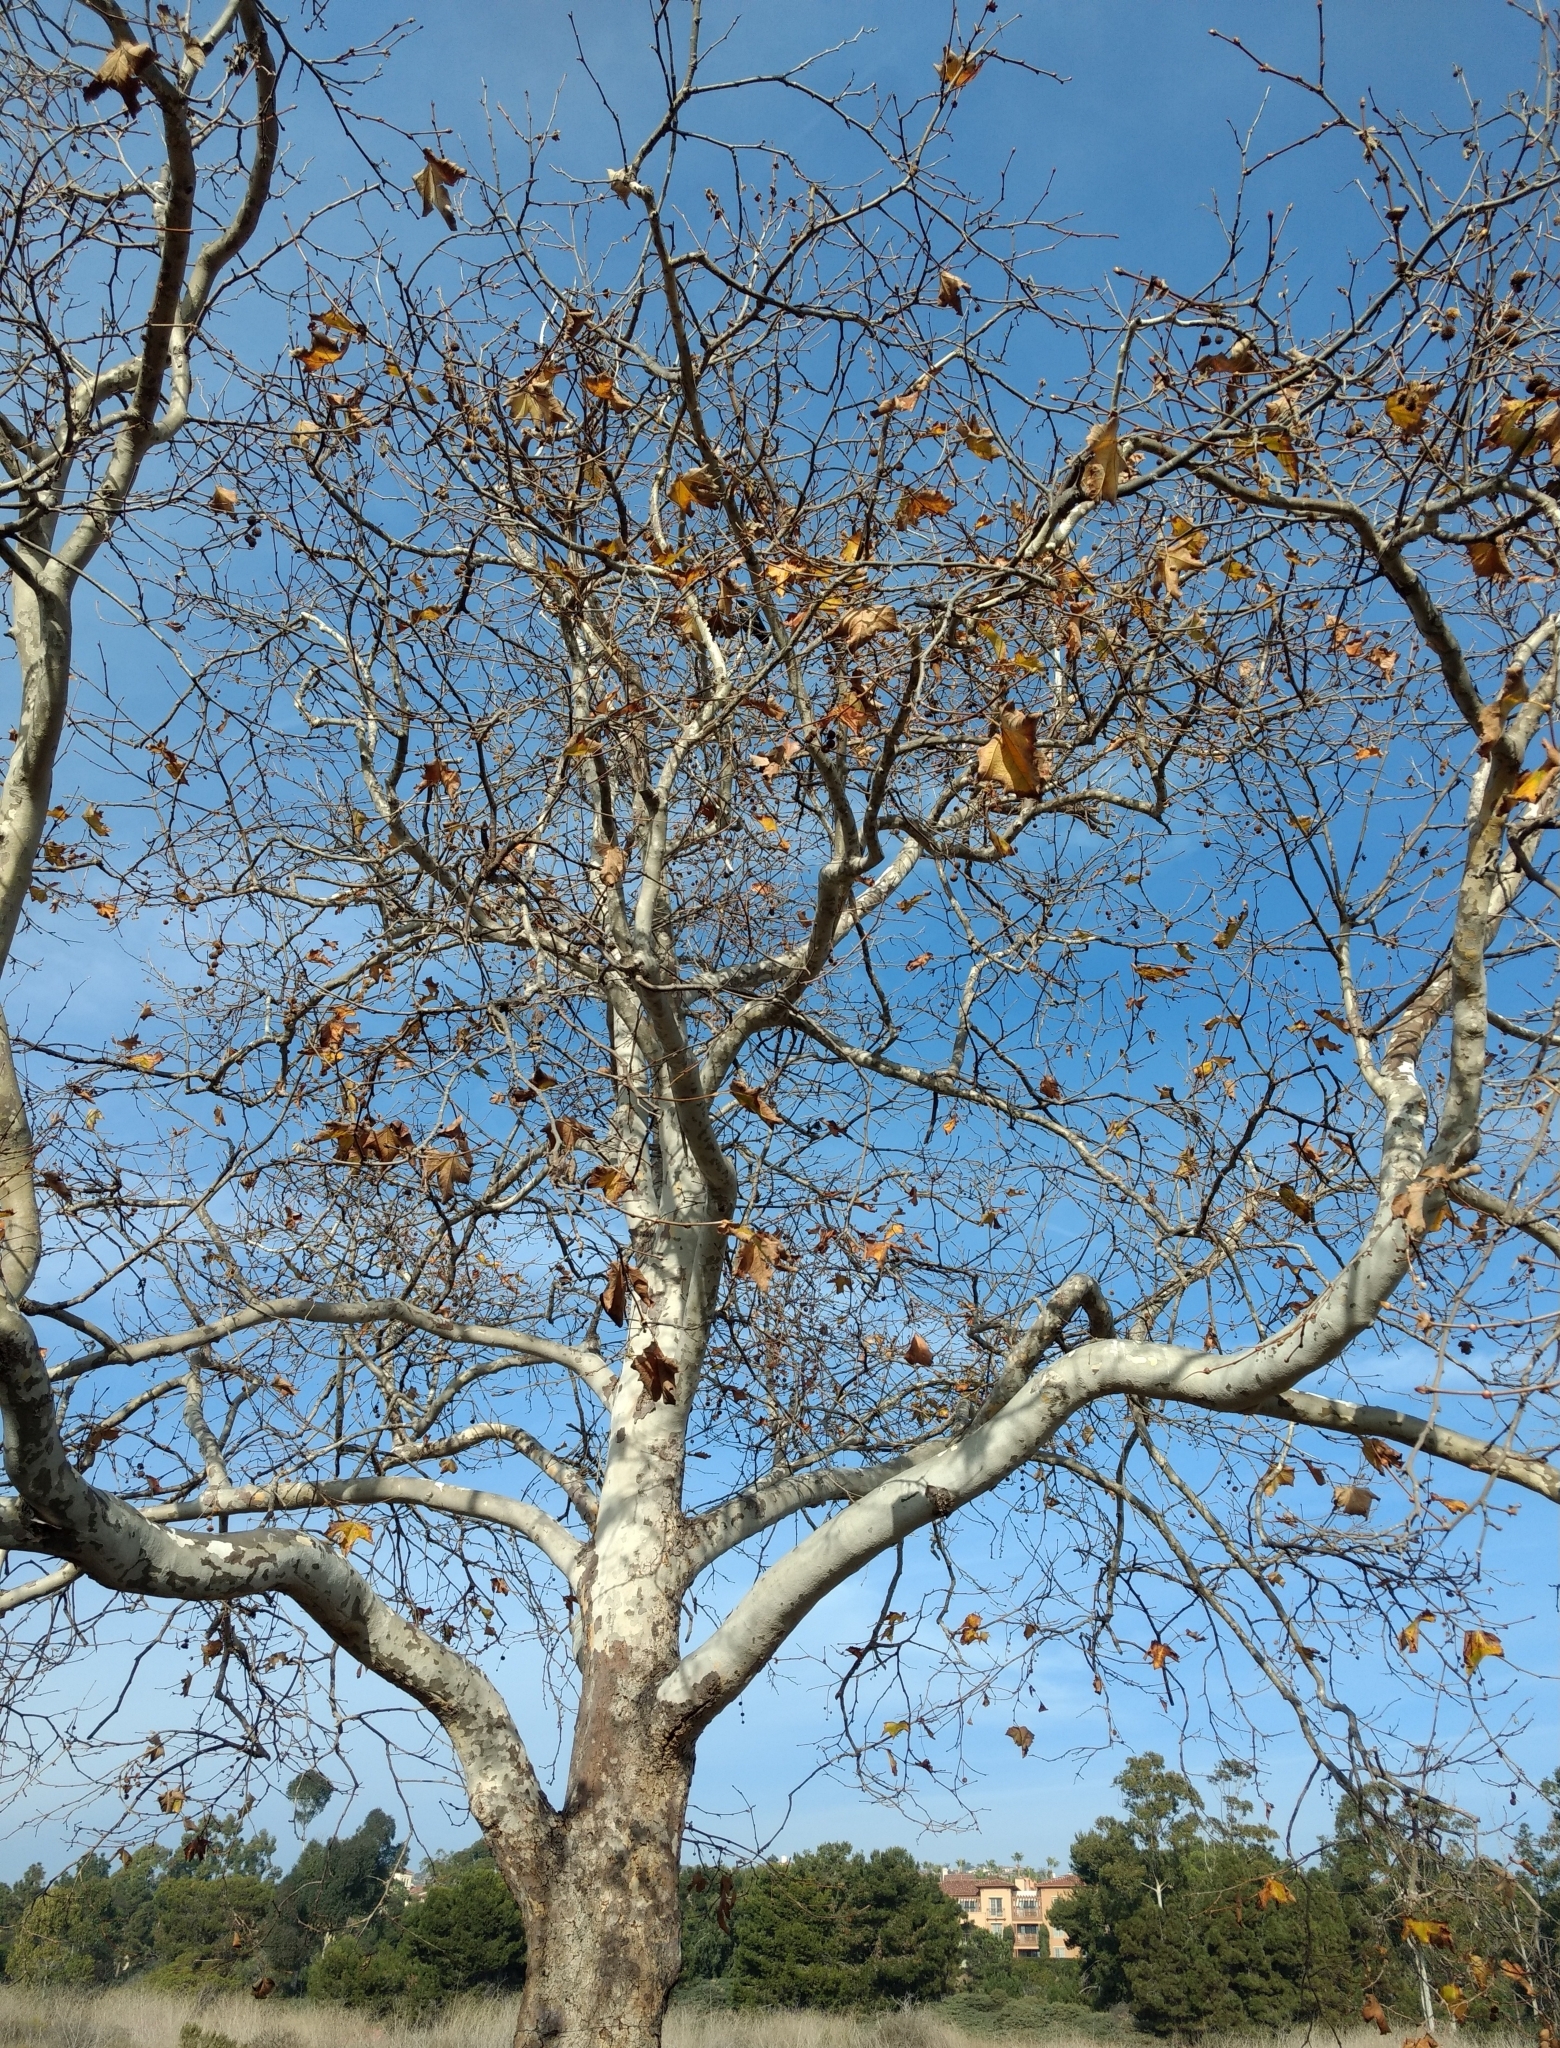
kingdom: Plantae
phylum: Tracheophyta
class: Magnoliopsida
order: Proteales
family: Platanaceae
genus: Platanus
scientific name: Platanus racemosa
